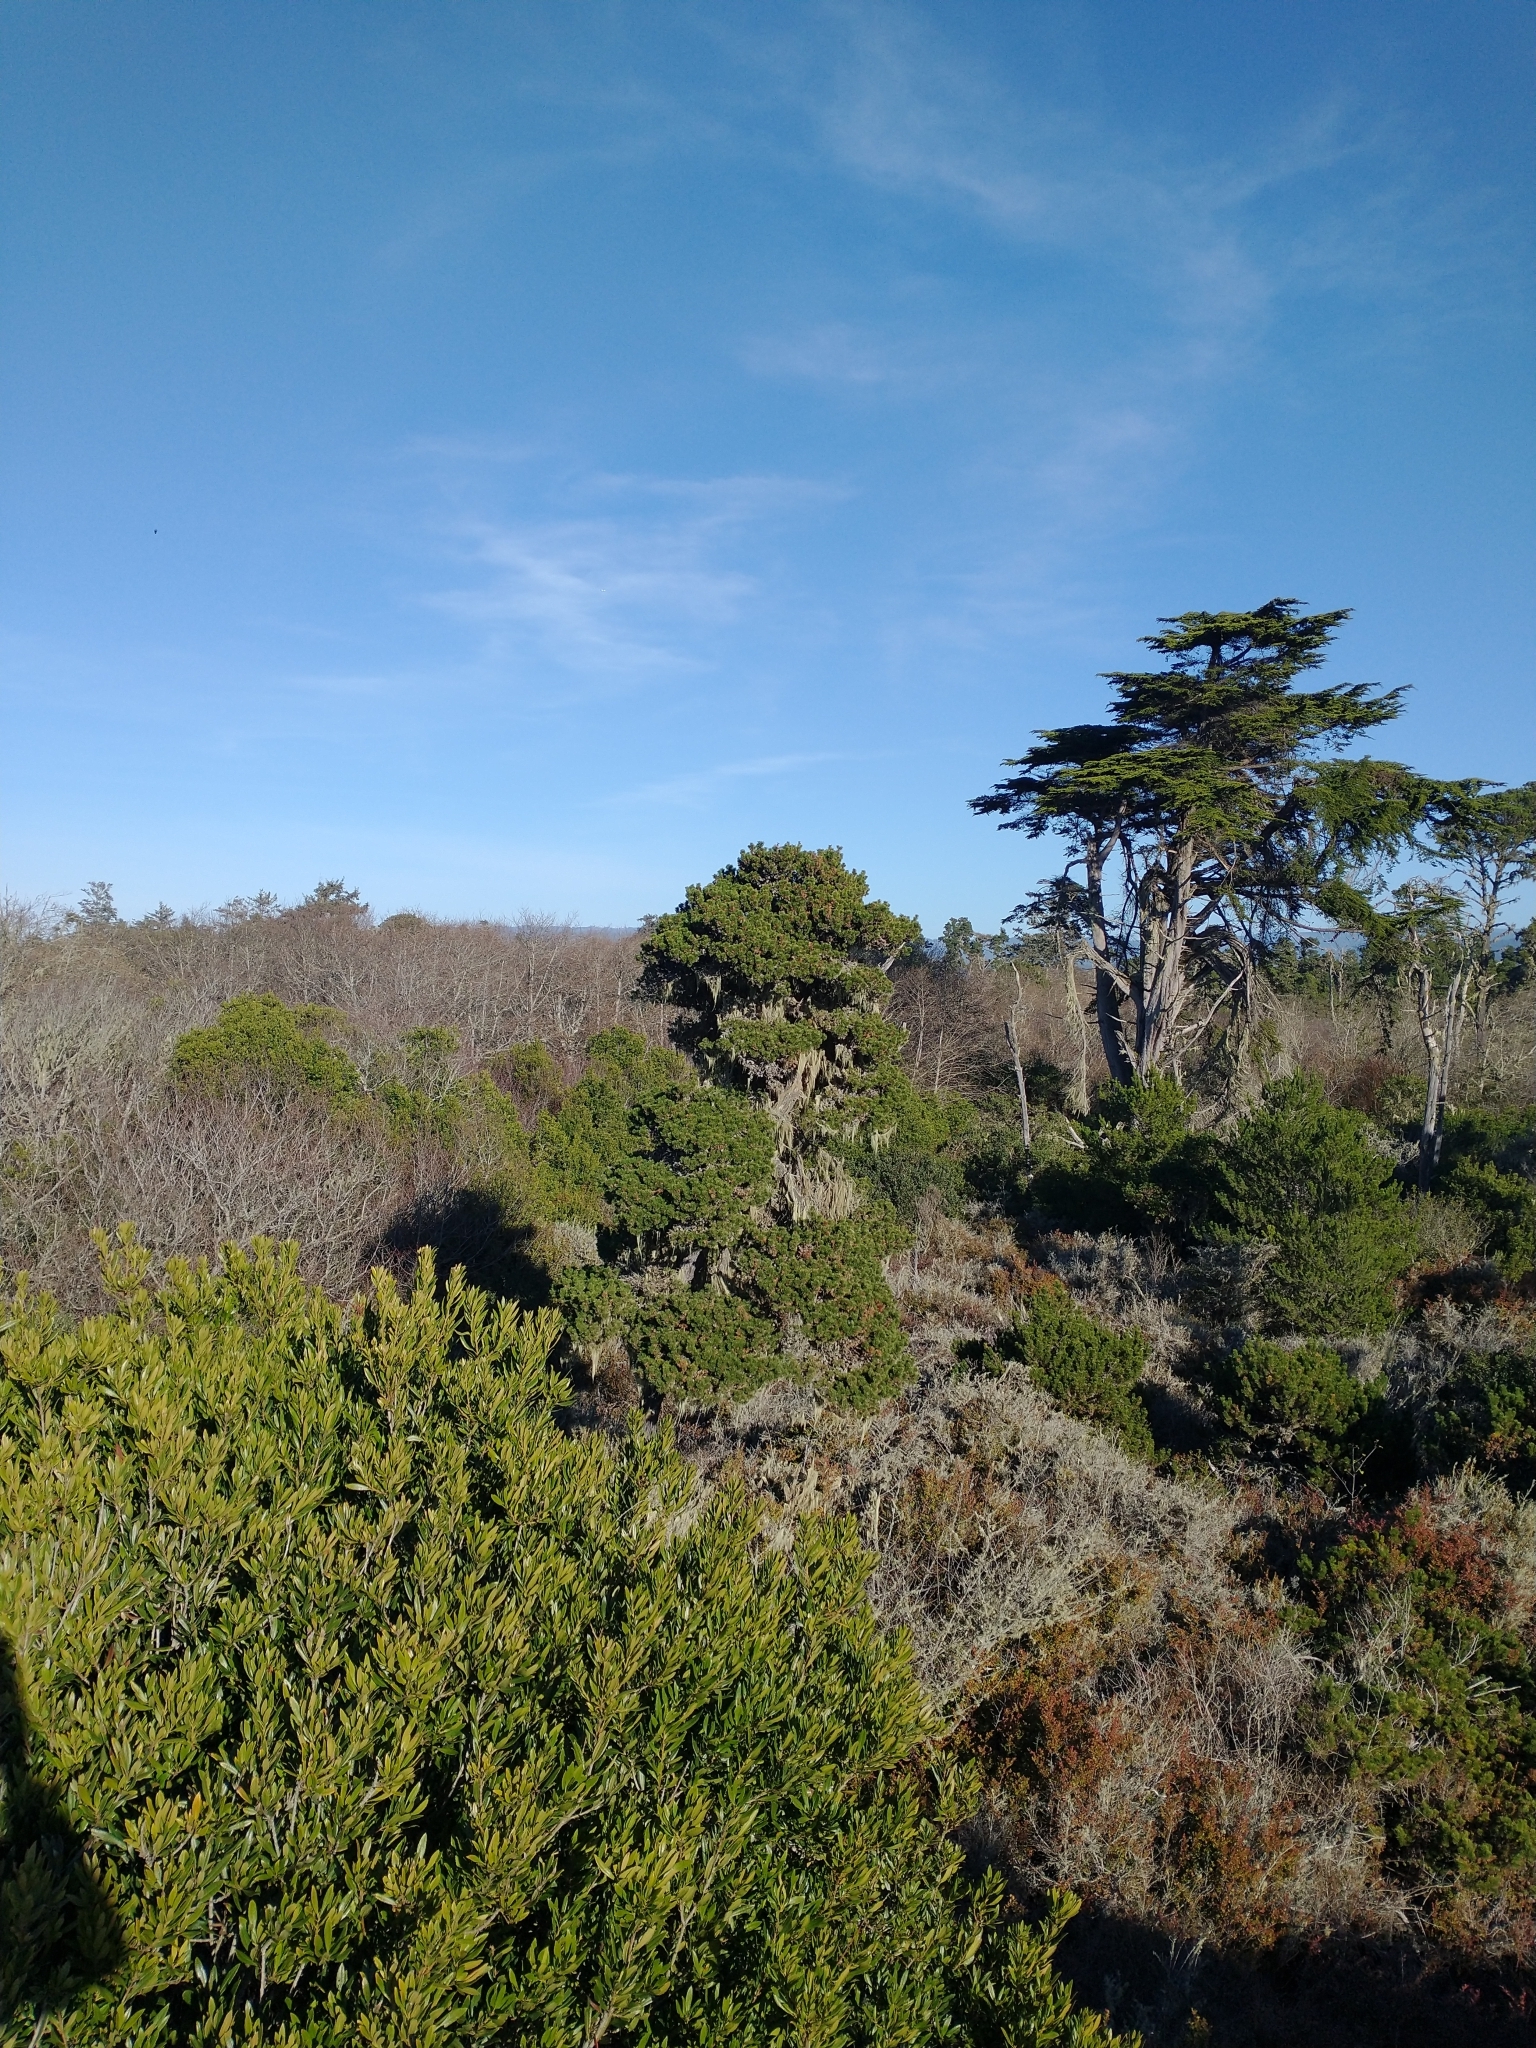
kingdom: Plantae
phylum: Tracheophyta
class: Pinopsida
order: Pinales
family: Pinaceae
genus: Pinus
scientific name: Pinus contorta
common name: Lodgepole pine
